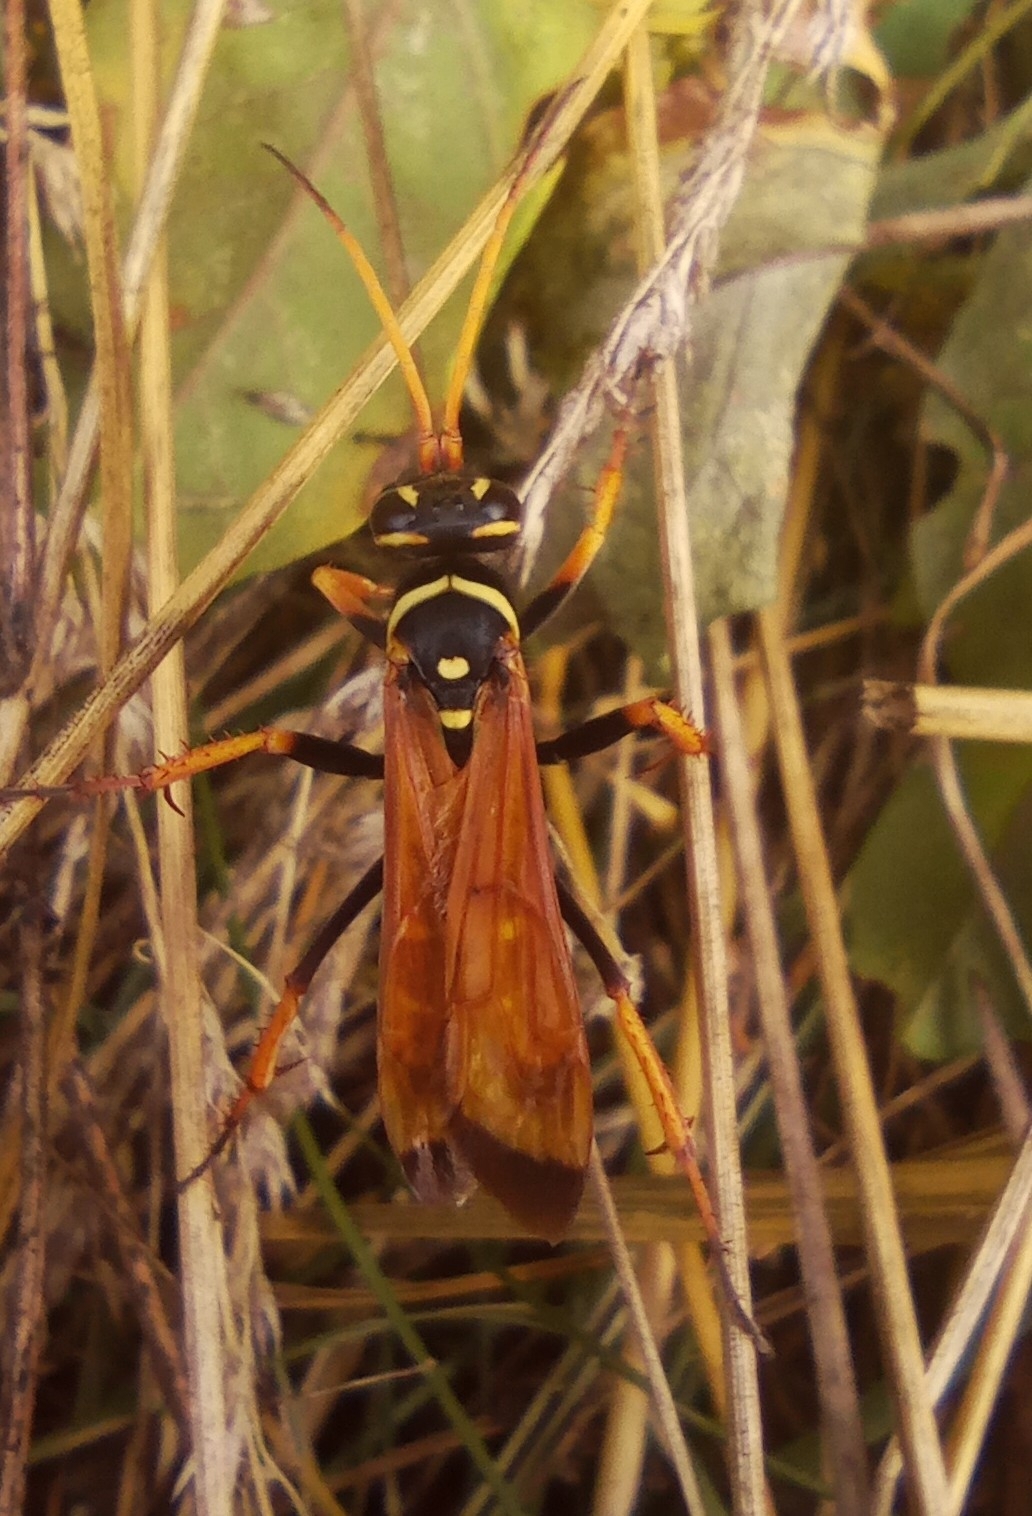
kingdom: Animalia
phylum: Arthropoda
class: Insecta
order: Hymenoptera
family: Pompilidae
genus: Parabatozonus
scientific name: Parabatozonus lacerticida
